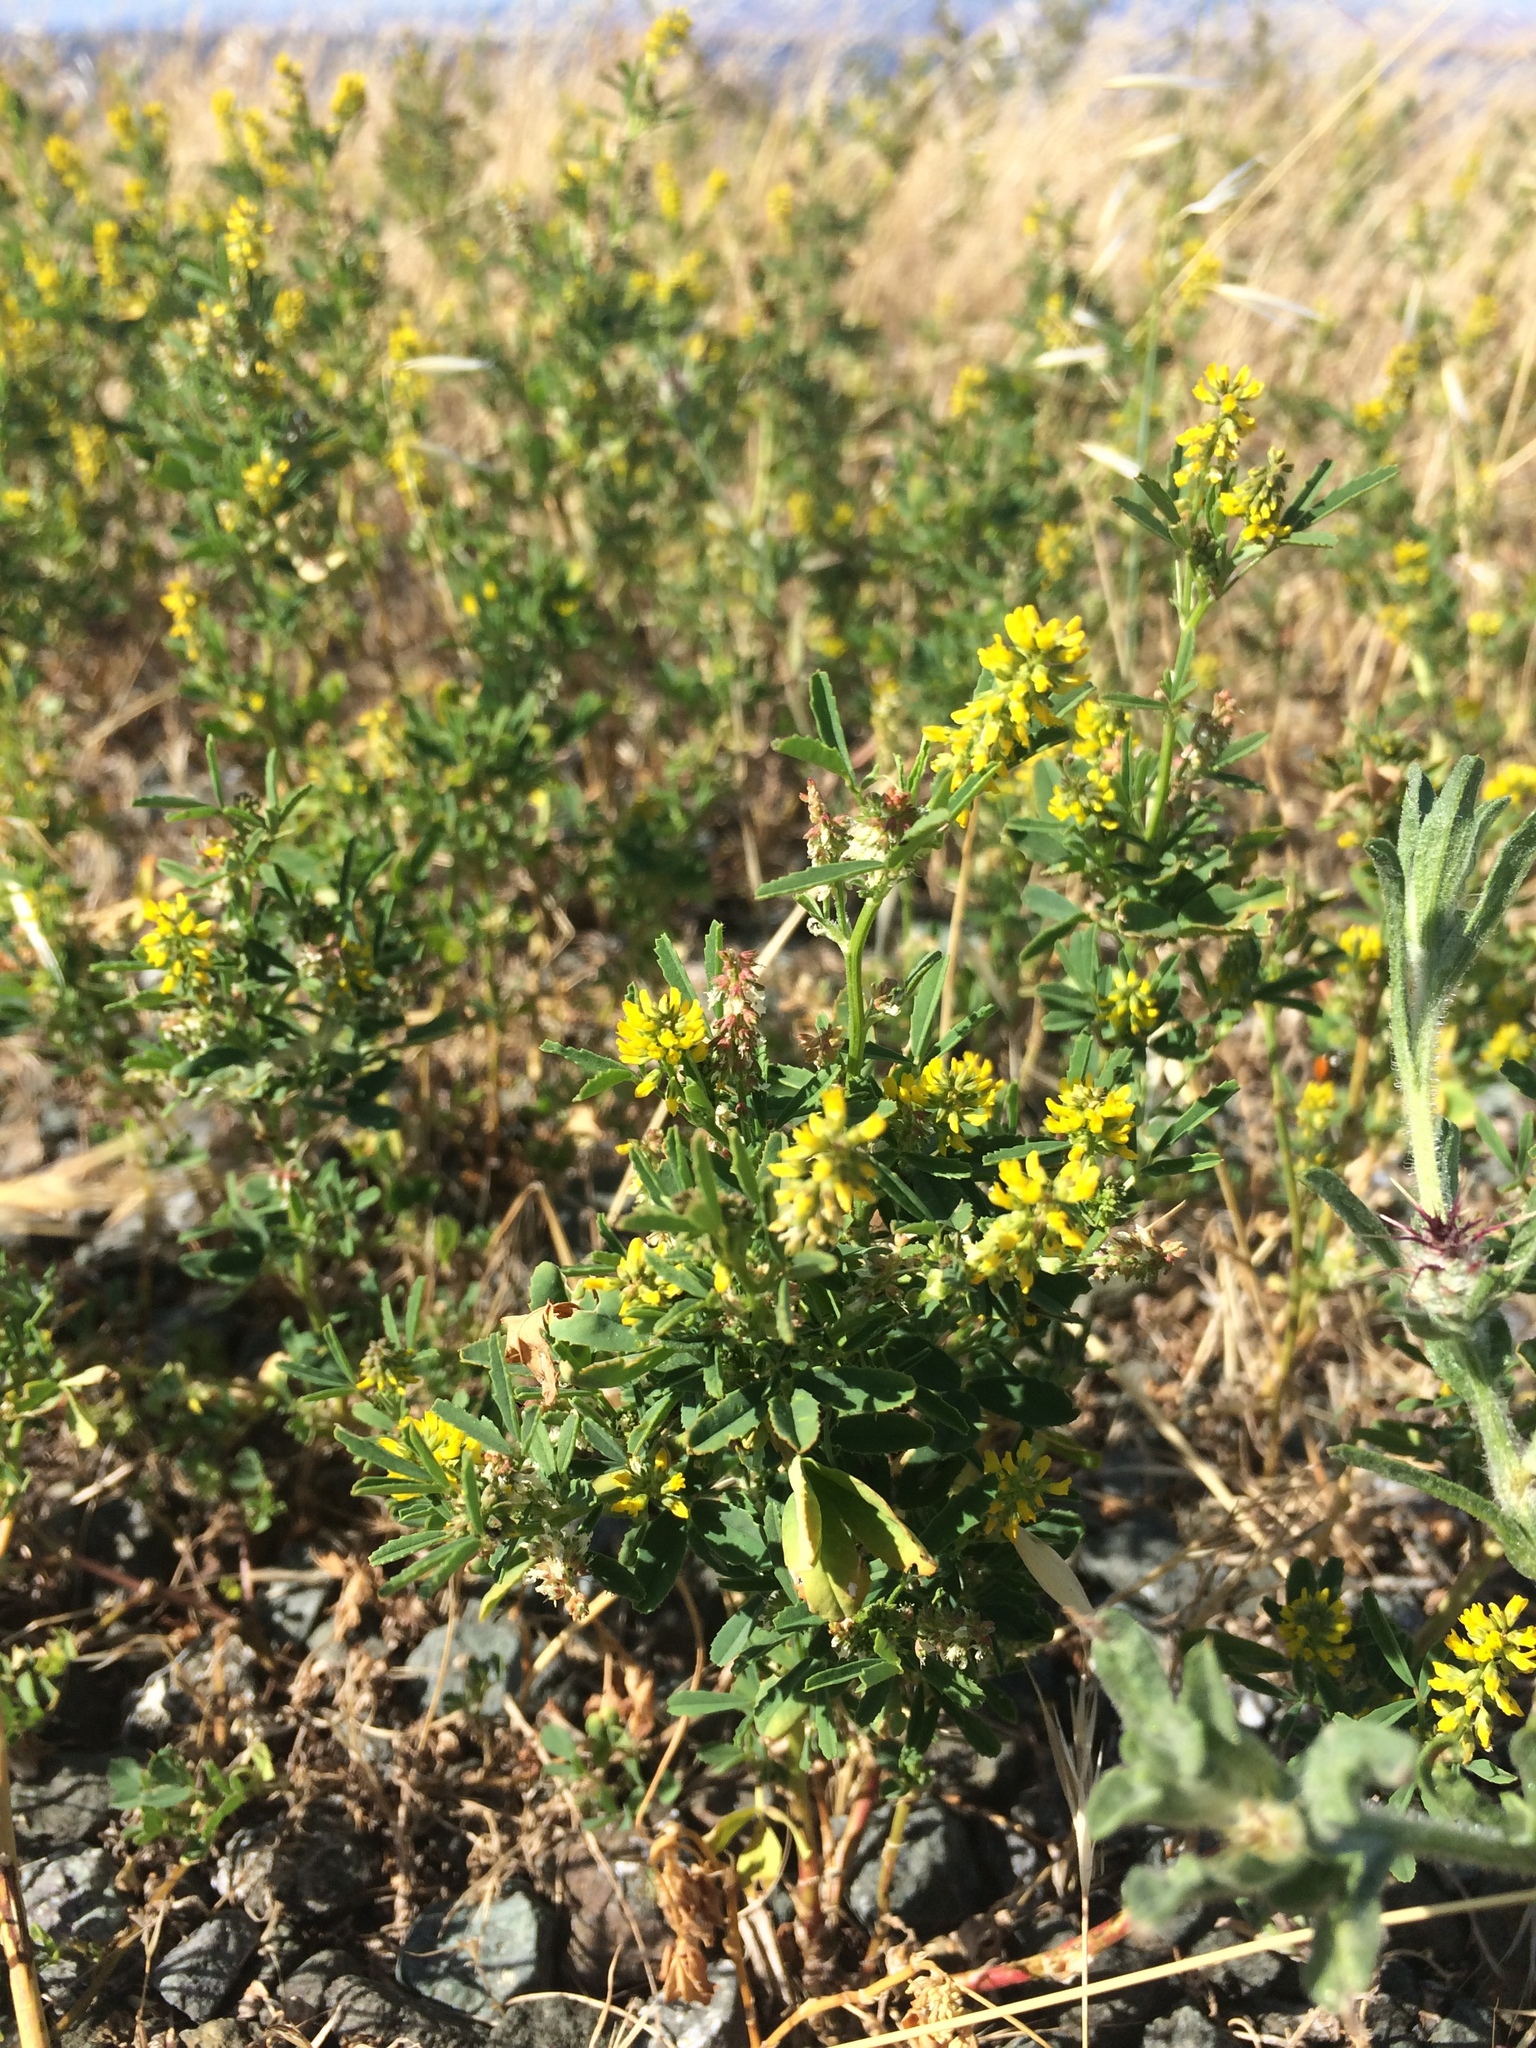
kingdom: Plantae
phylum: Tracheophyta
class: Magnoliopsida
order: Fabales
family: Fabaceae
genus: Melilotus
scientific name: Melilotus indicus
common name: Small melilot
